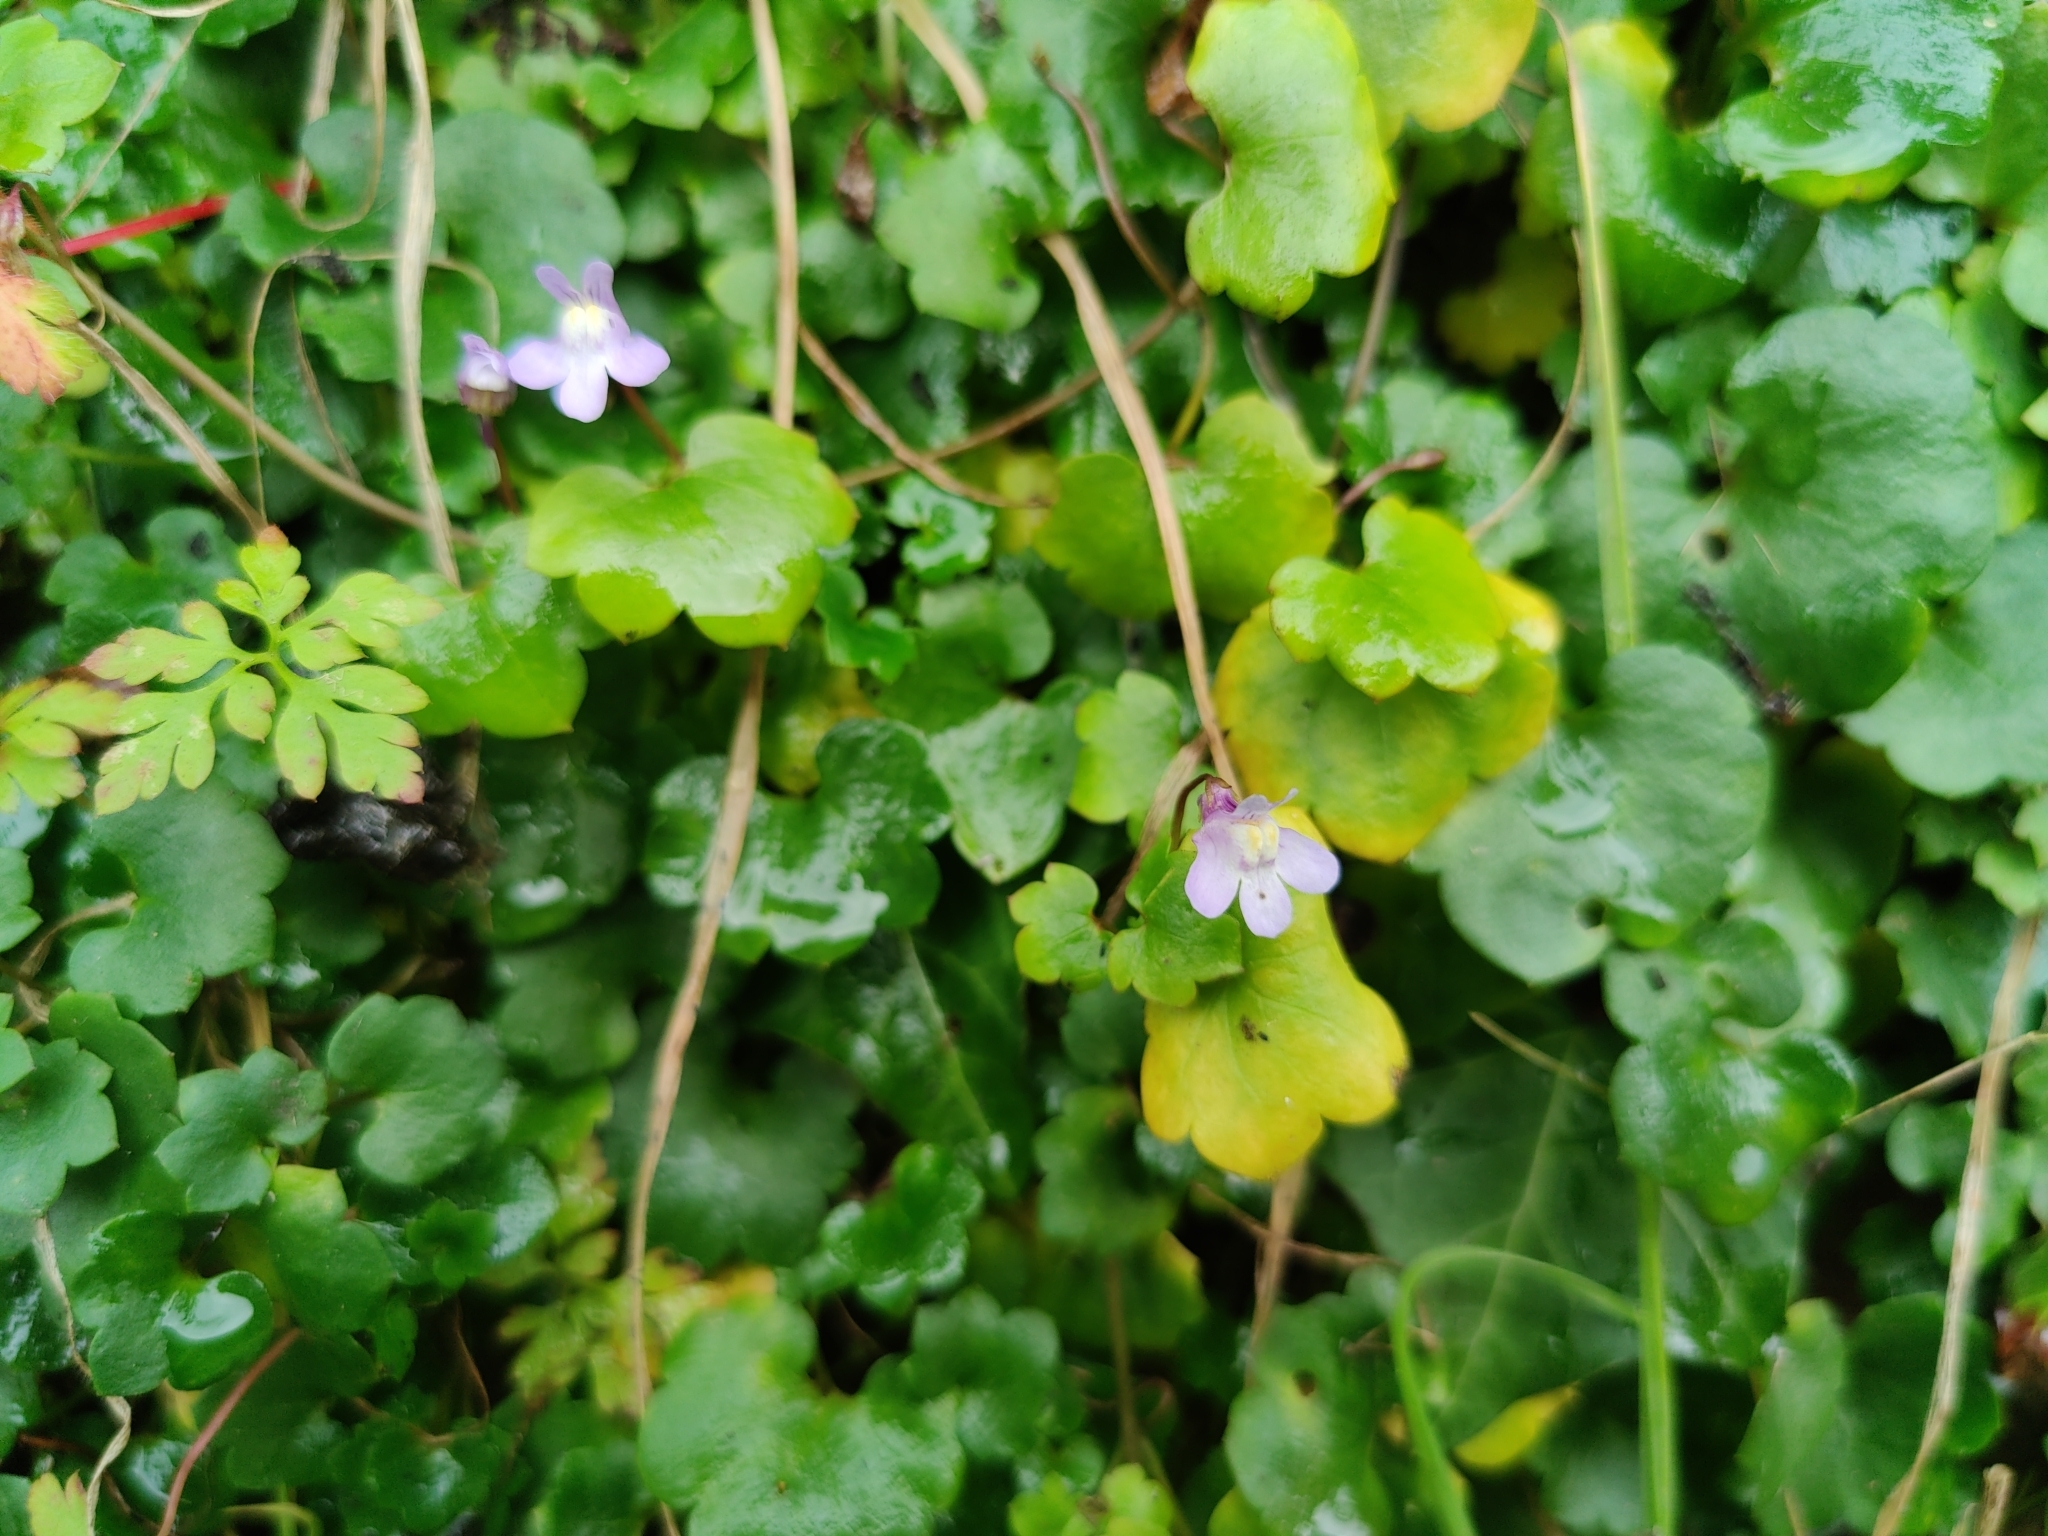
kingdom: Plantae
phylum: Tracheophyta
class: Magnoliopsida
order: Lamiales
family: Plantaginaceae
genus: Cymbalaria
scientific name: Cymbalaria muralis
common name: Ivy-leaved toadflax
